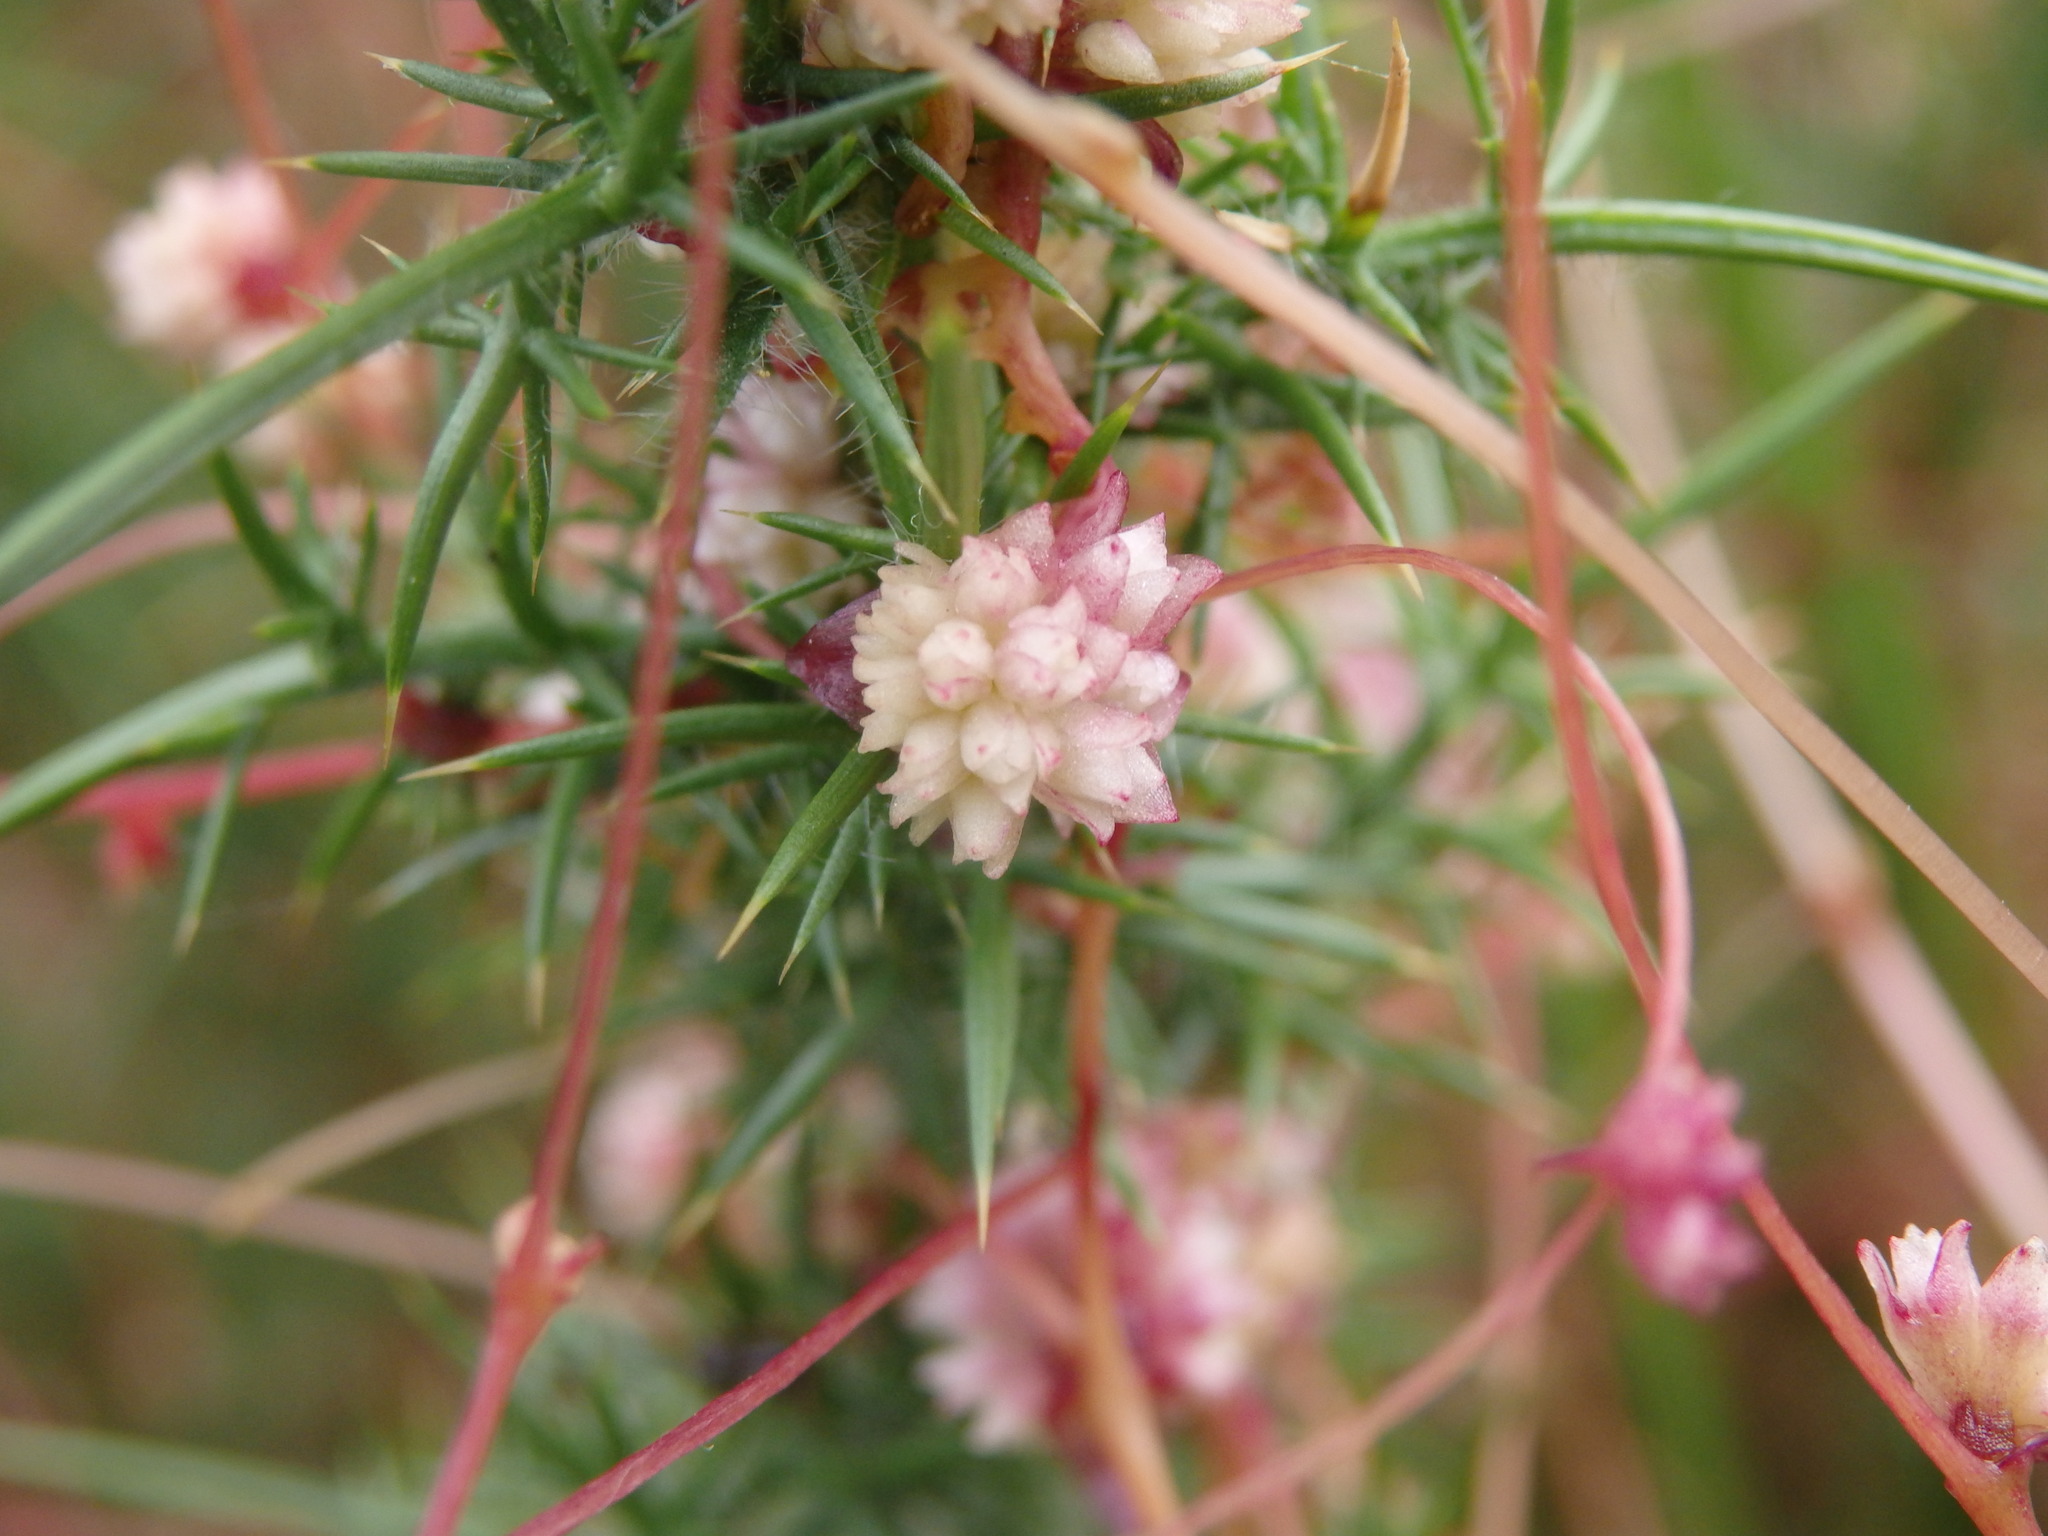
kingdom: Plantae
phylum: Tracheophyta
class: Magnoliopsida
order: Solanales
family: Convolvulaceae
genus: Cuscuta
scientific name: Cuscuta epithymum
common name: Clover dodder
